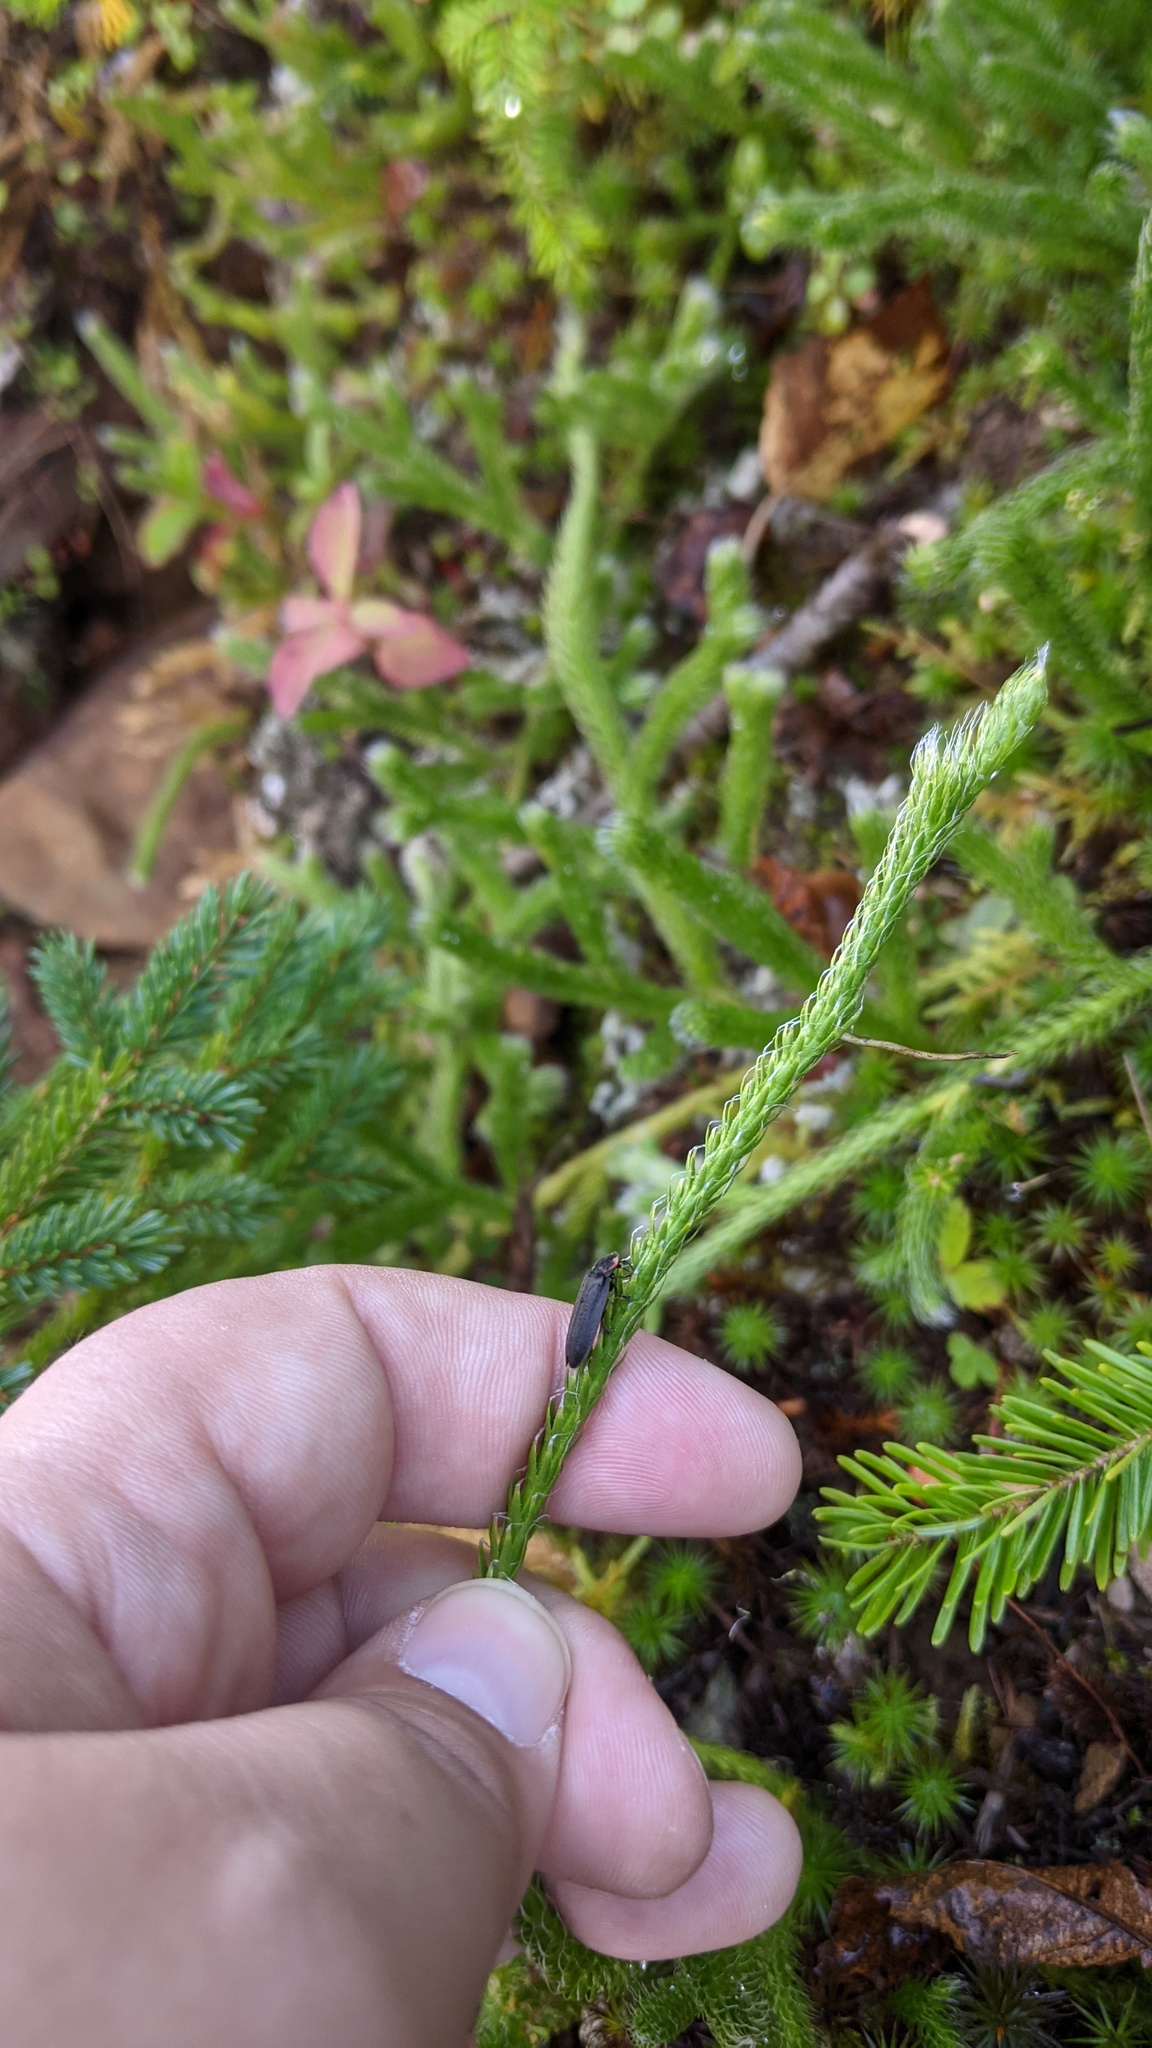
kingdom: Animalia
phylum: Arthropoda
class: Insecta
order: Coleoptera
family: Lampyridae
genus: Photinus
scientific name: Photinus corrusca
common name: Winter firefly
